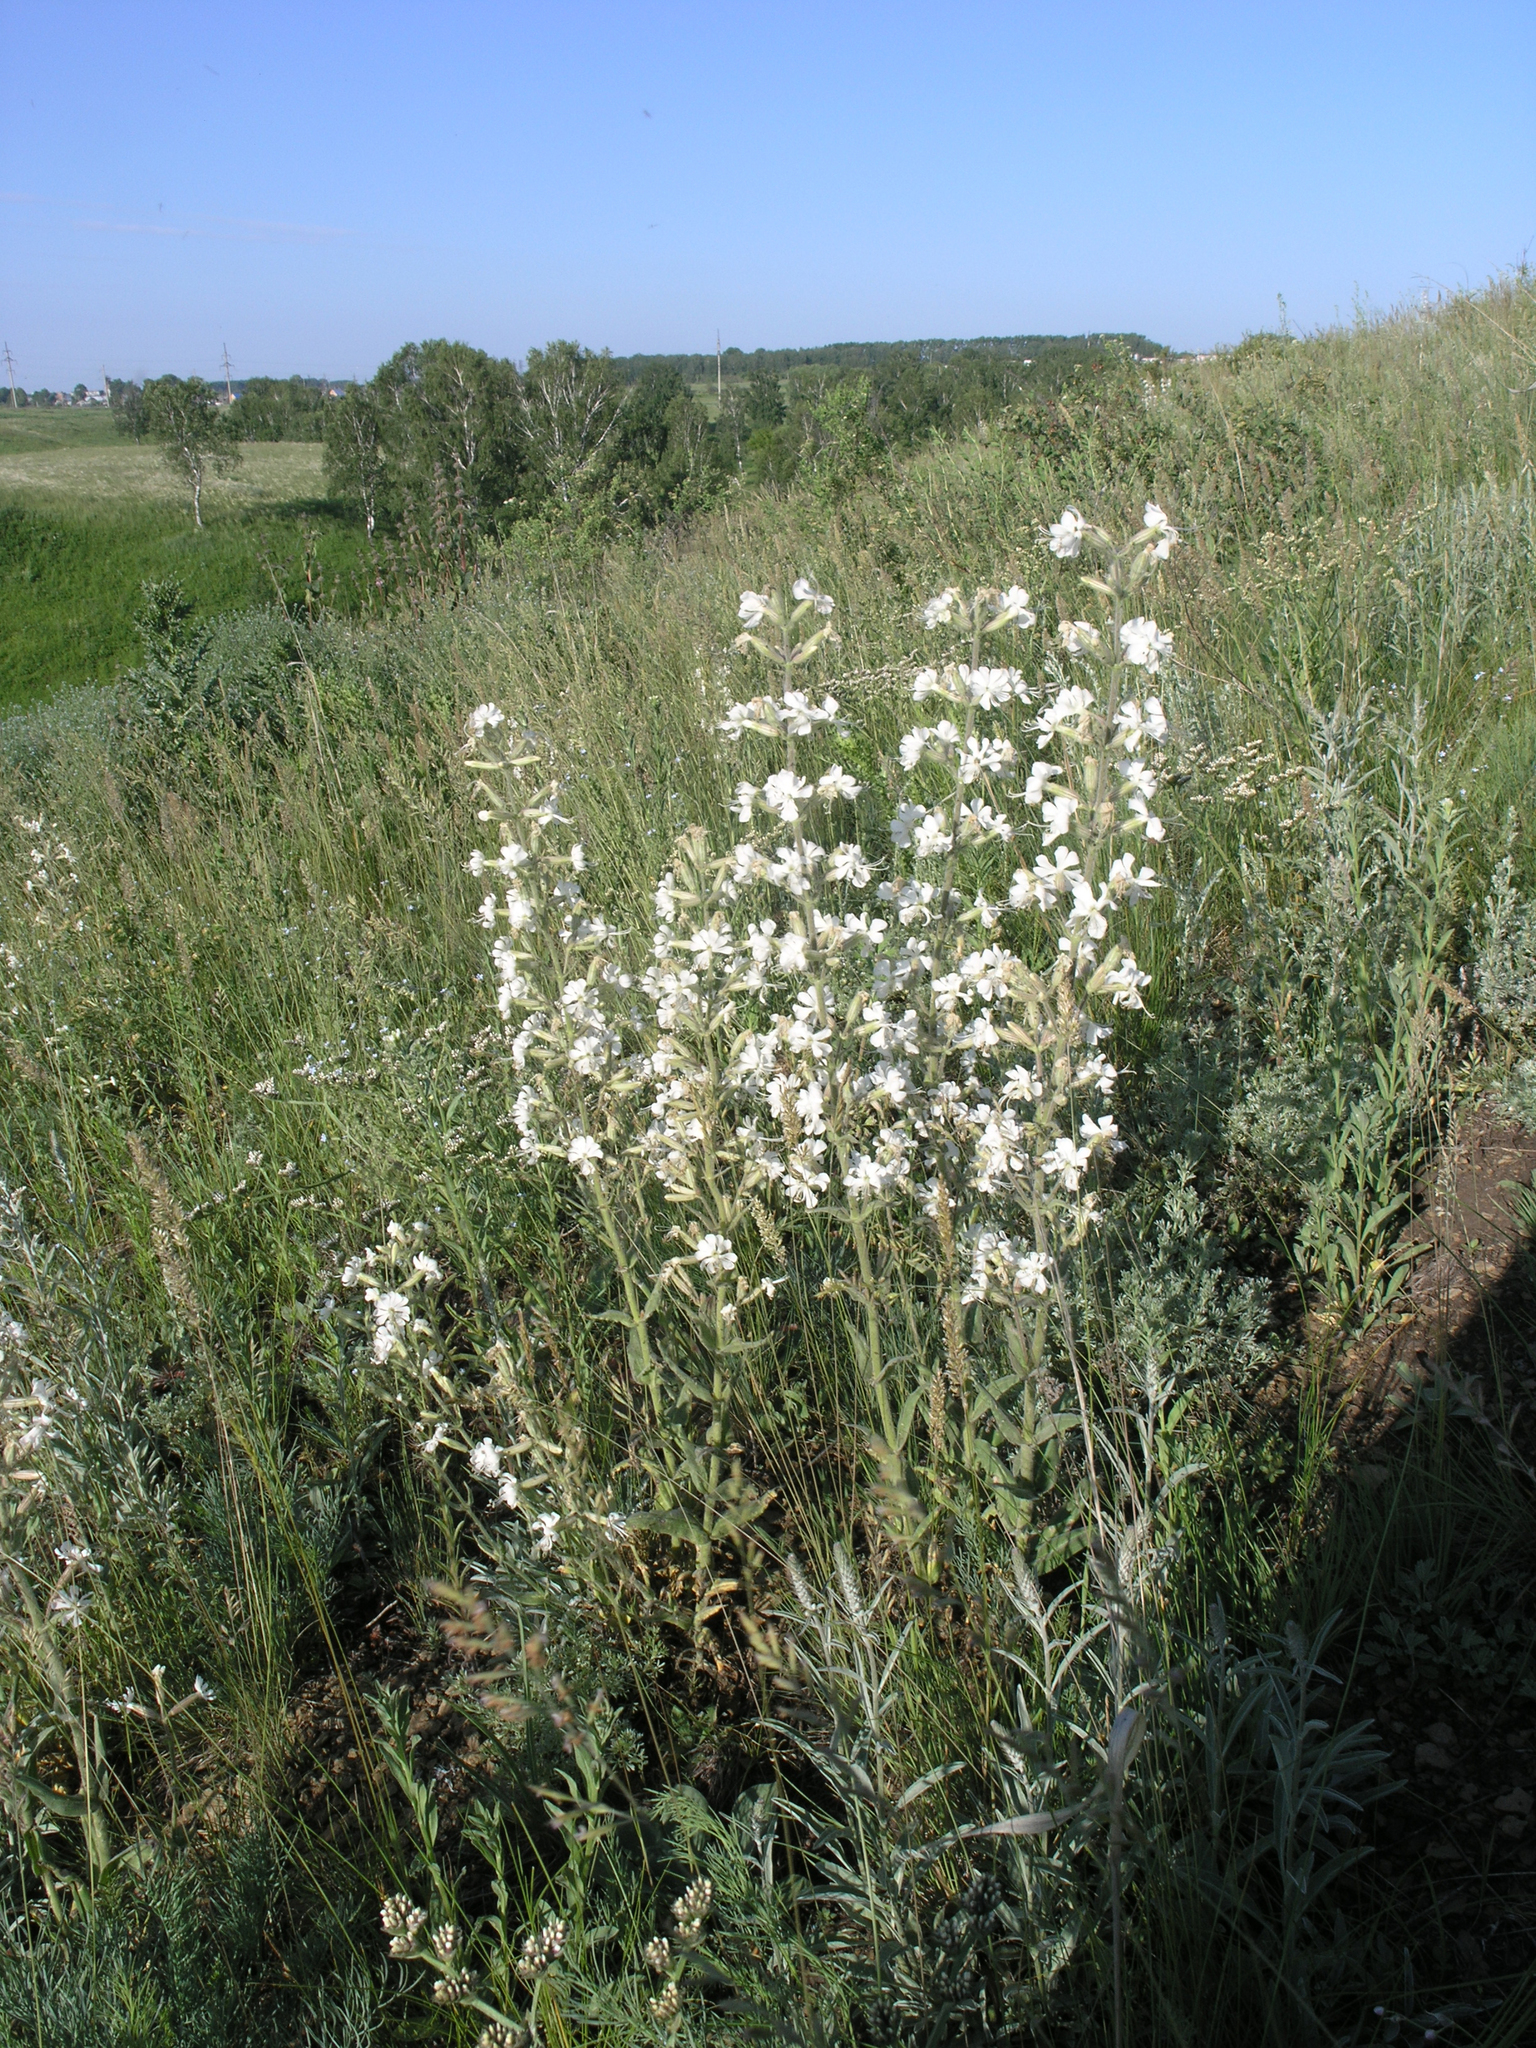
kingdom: Plantae
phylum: Tracheophyta
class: Magnoliopsida
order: Caryophyllales
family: Caryophyllaceae
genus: Silene
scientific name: Silene viscosa
